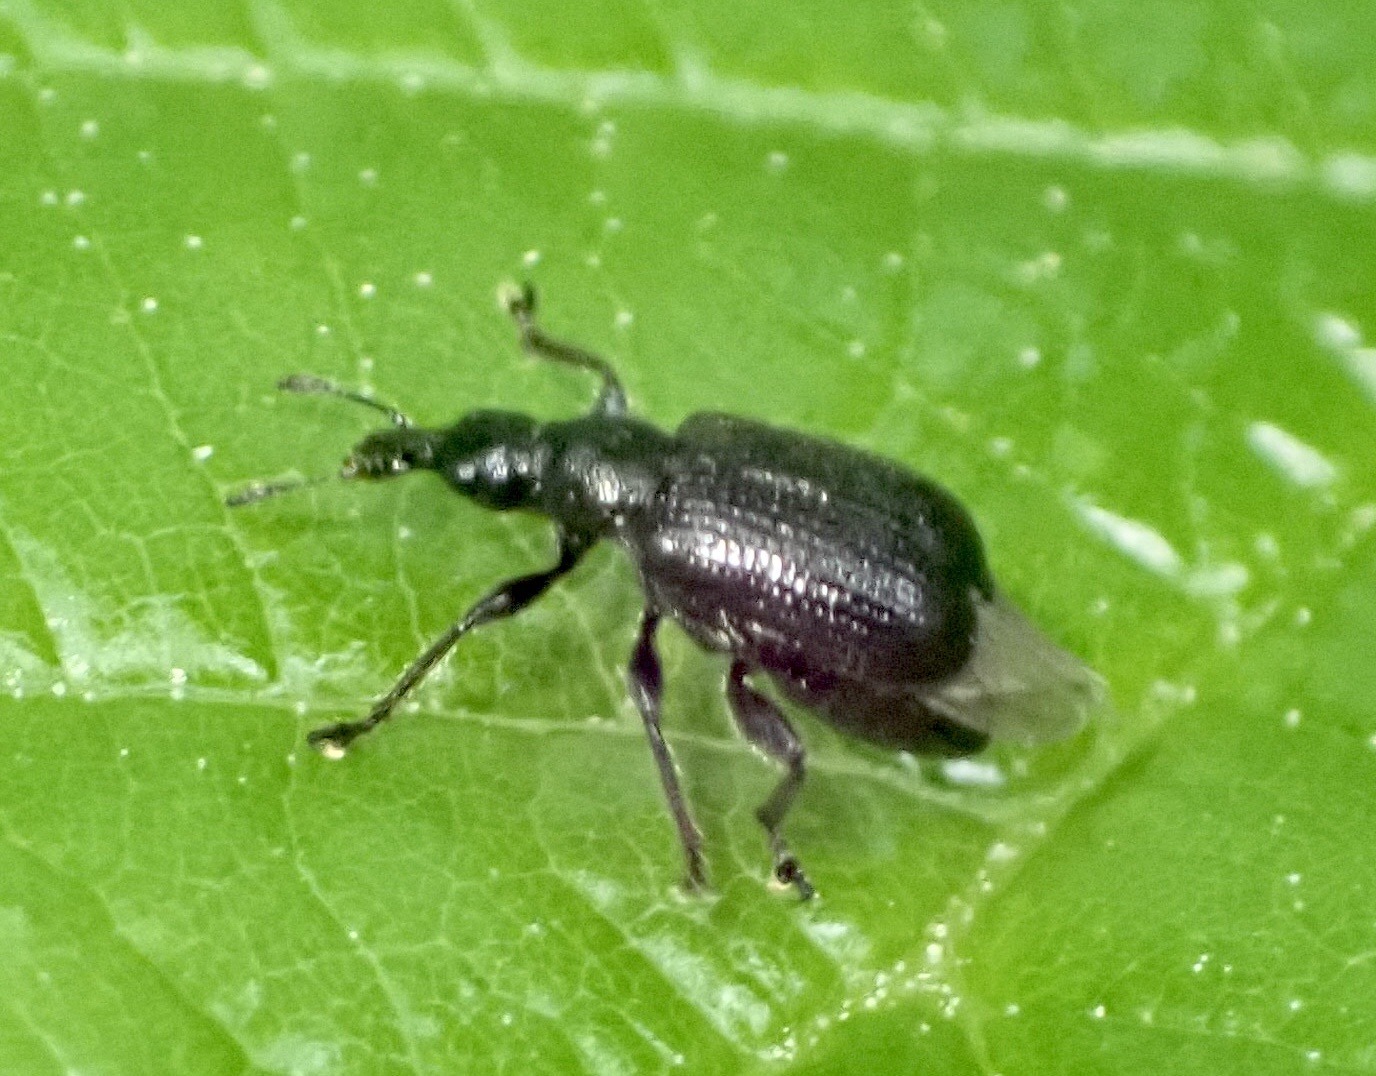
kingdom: Animalia
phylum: Arthropoda
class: Insecta
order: Coleoptera
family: Attelabidae
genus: Deporaus
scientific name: Deporaus betulae
